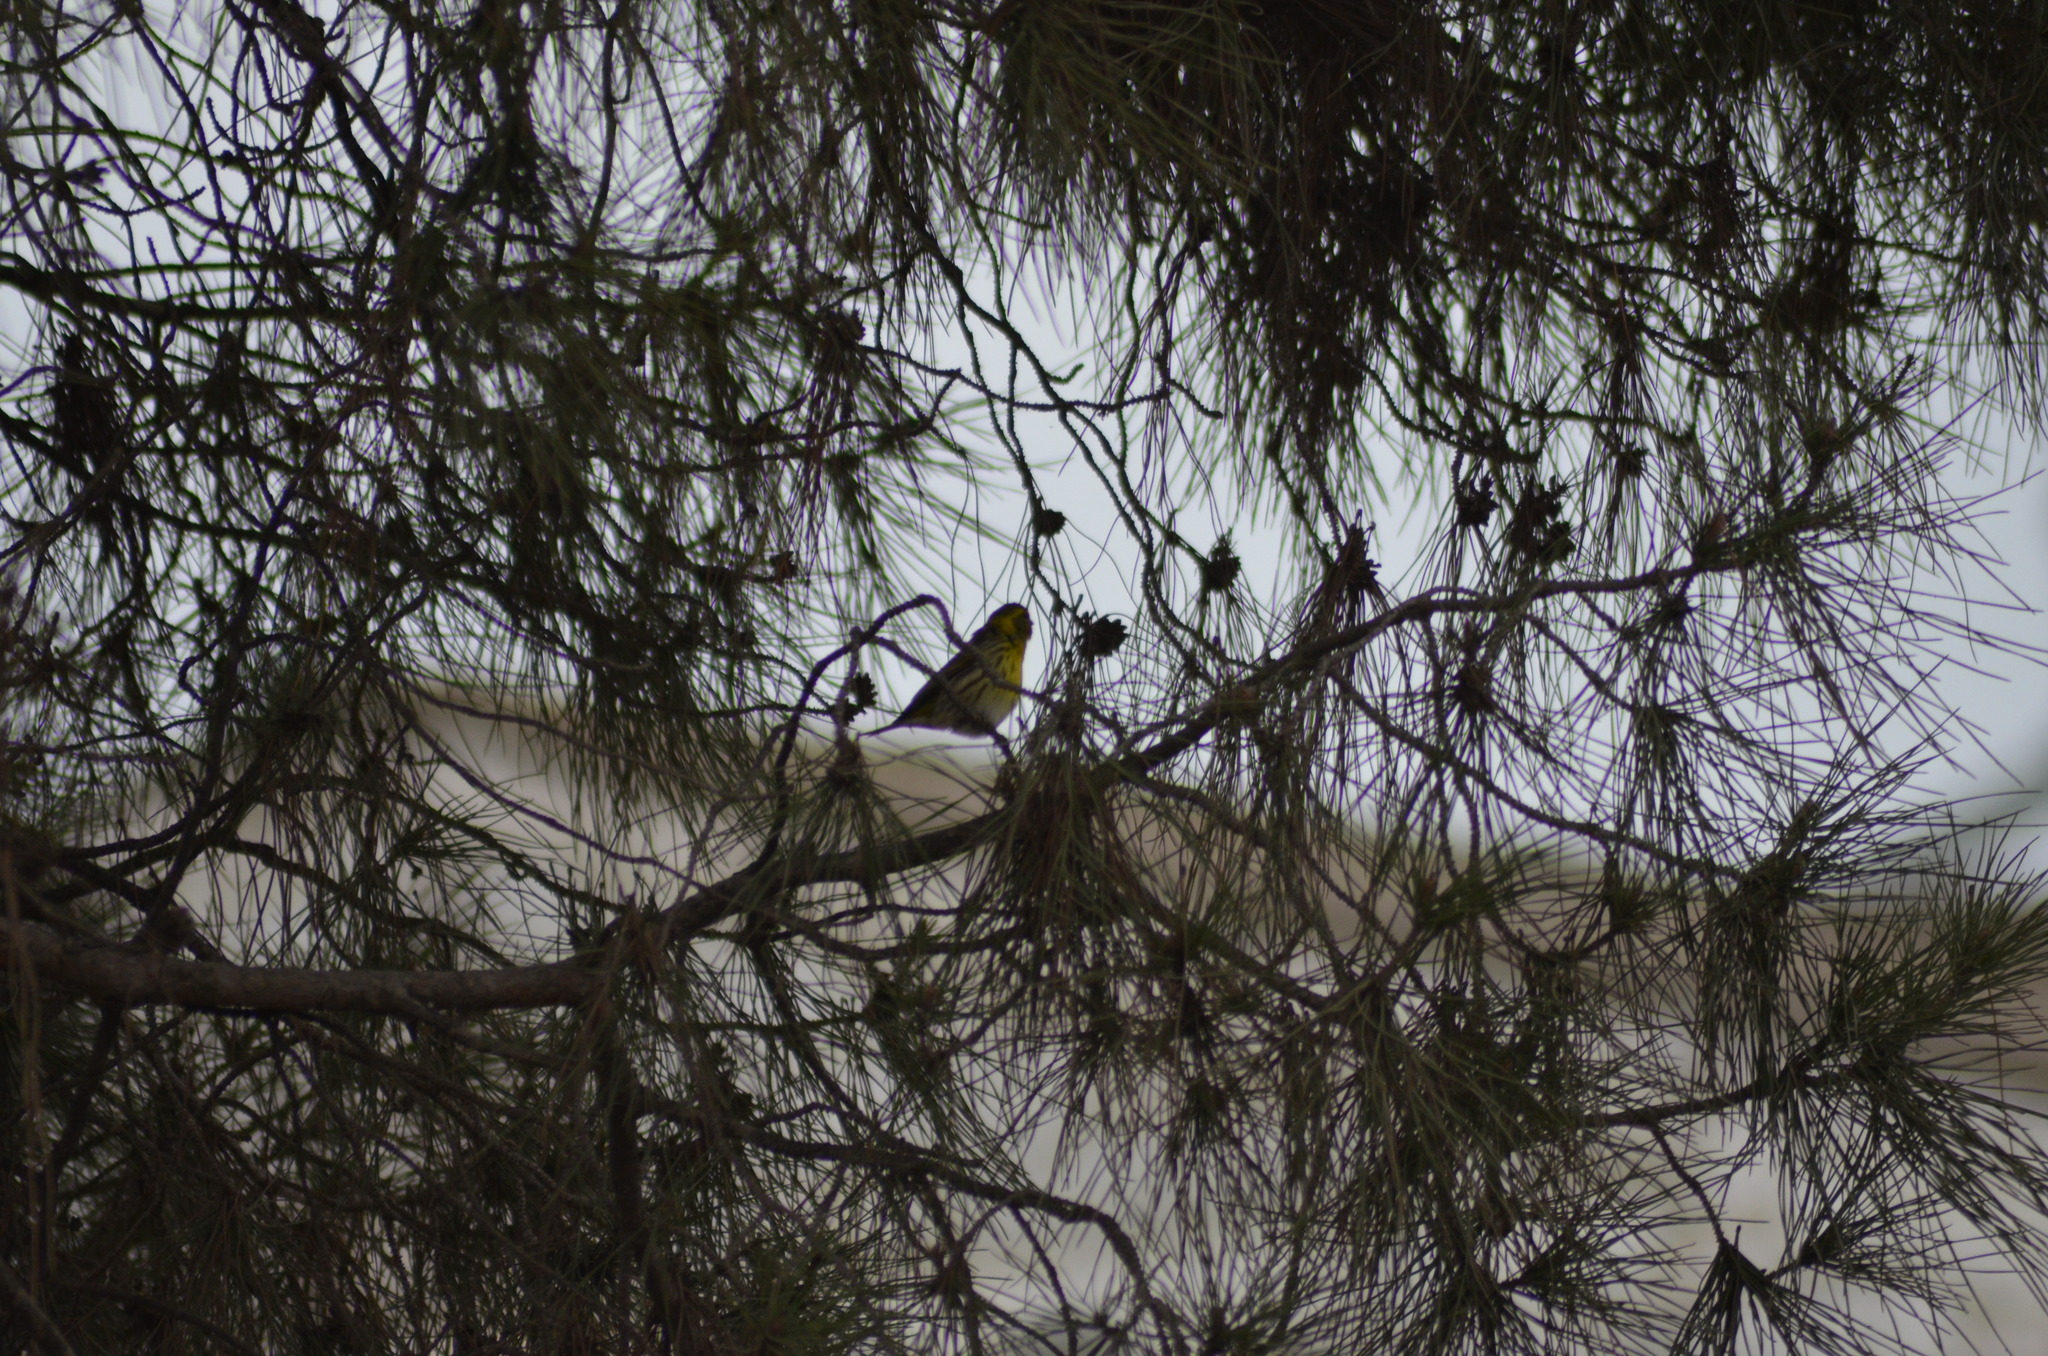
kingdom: Animalia
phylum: Chordata
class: Aves
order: Passeriformes
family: Fringillidae
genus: Serinus
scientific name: Serinus serinus
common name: European serin
